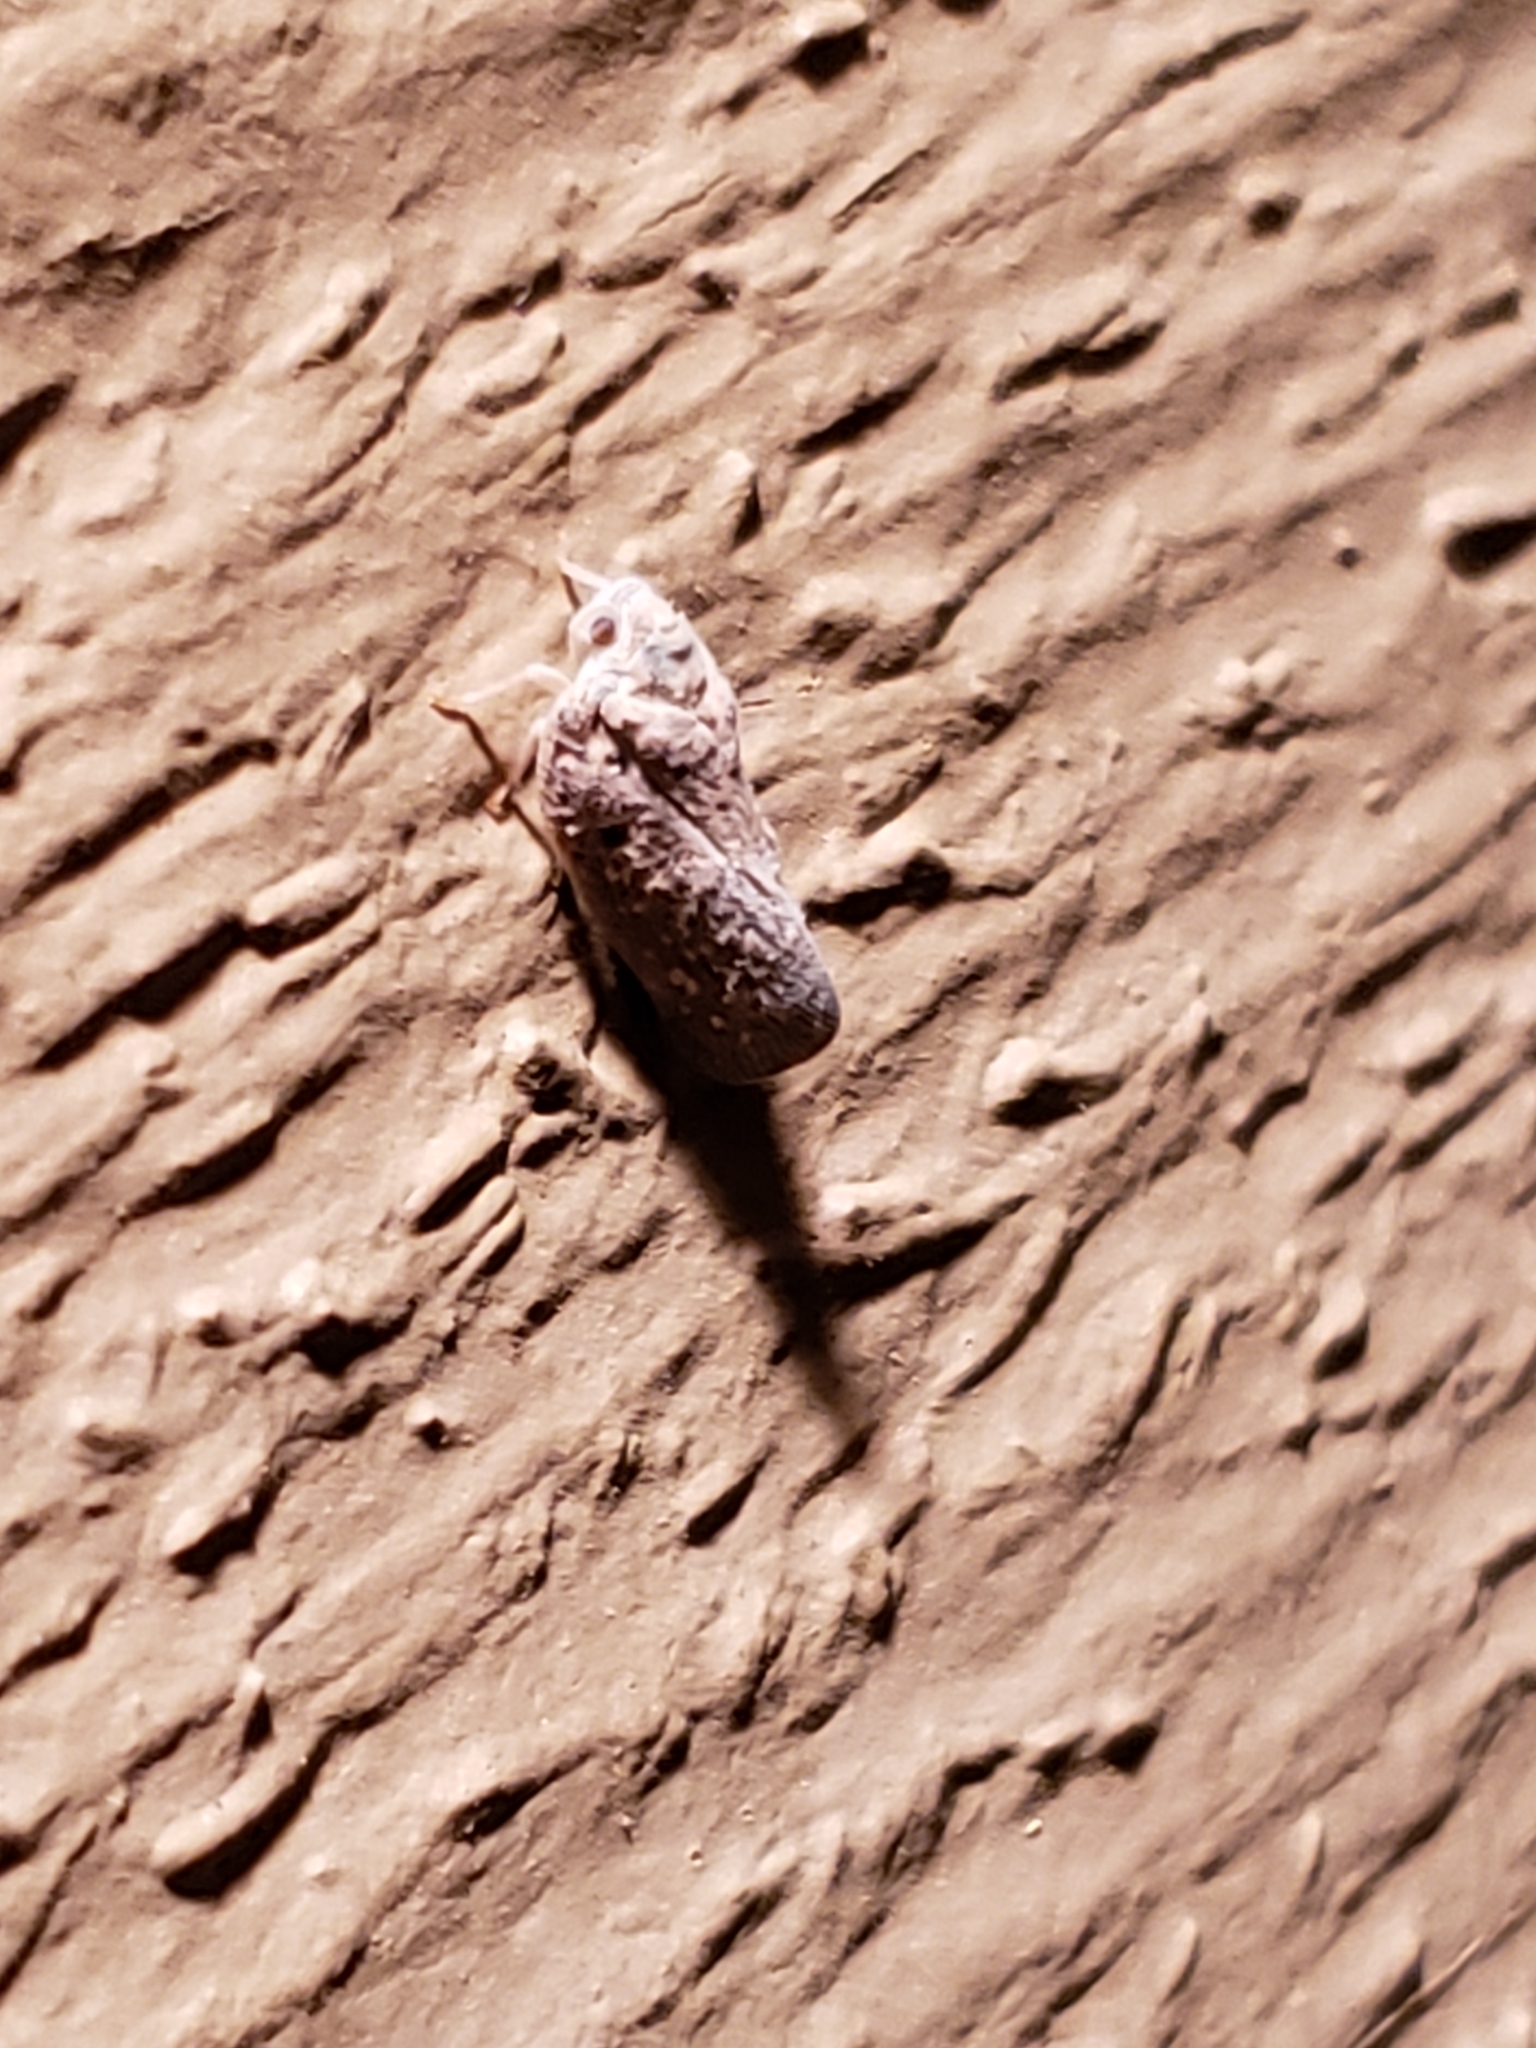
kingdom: Animalia
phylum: Arthropoda
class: Insecta
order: Hemiptera
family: Flatidae
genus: Metcalfa
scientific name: Metcalfa pruinosa
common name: Citrus flatid planthopper
